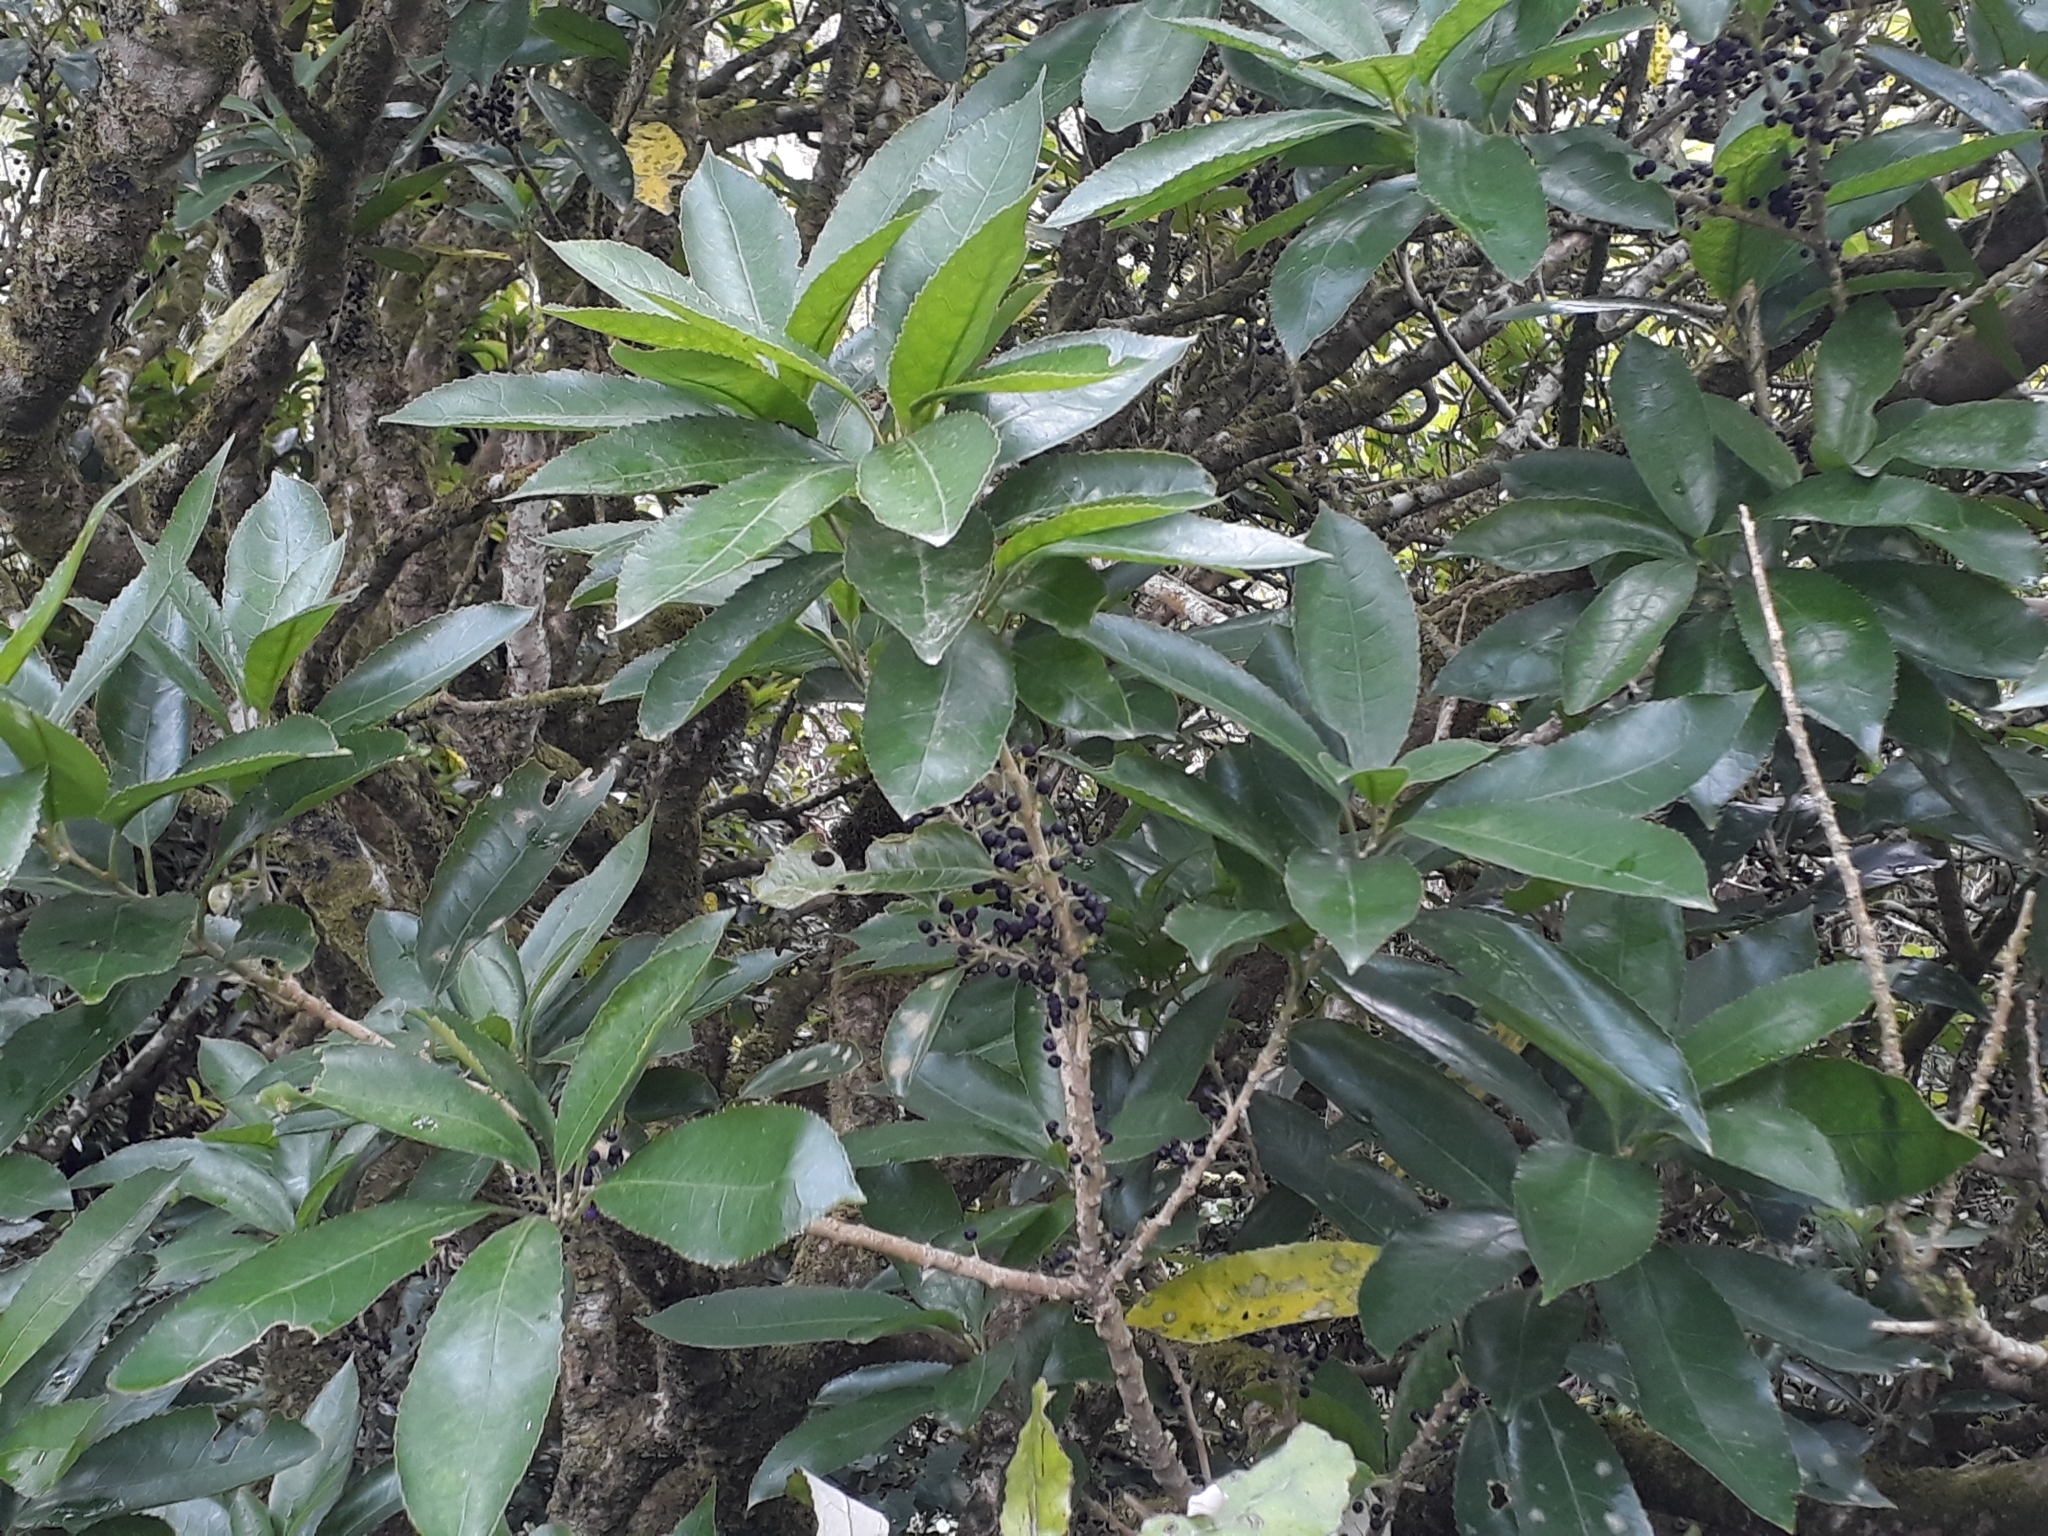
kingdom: Plantae
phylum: Tracheophyta
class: Magnoliopsida
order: Malpighiales
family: Violaceae
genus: Melicytus
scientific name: Melicytus ramiflorus
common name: Mahoe
